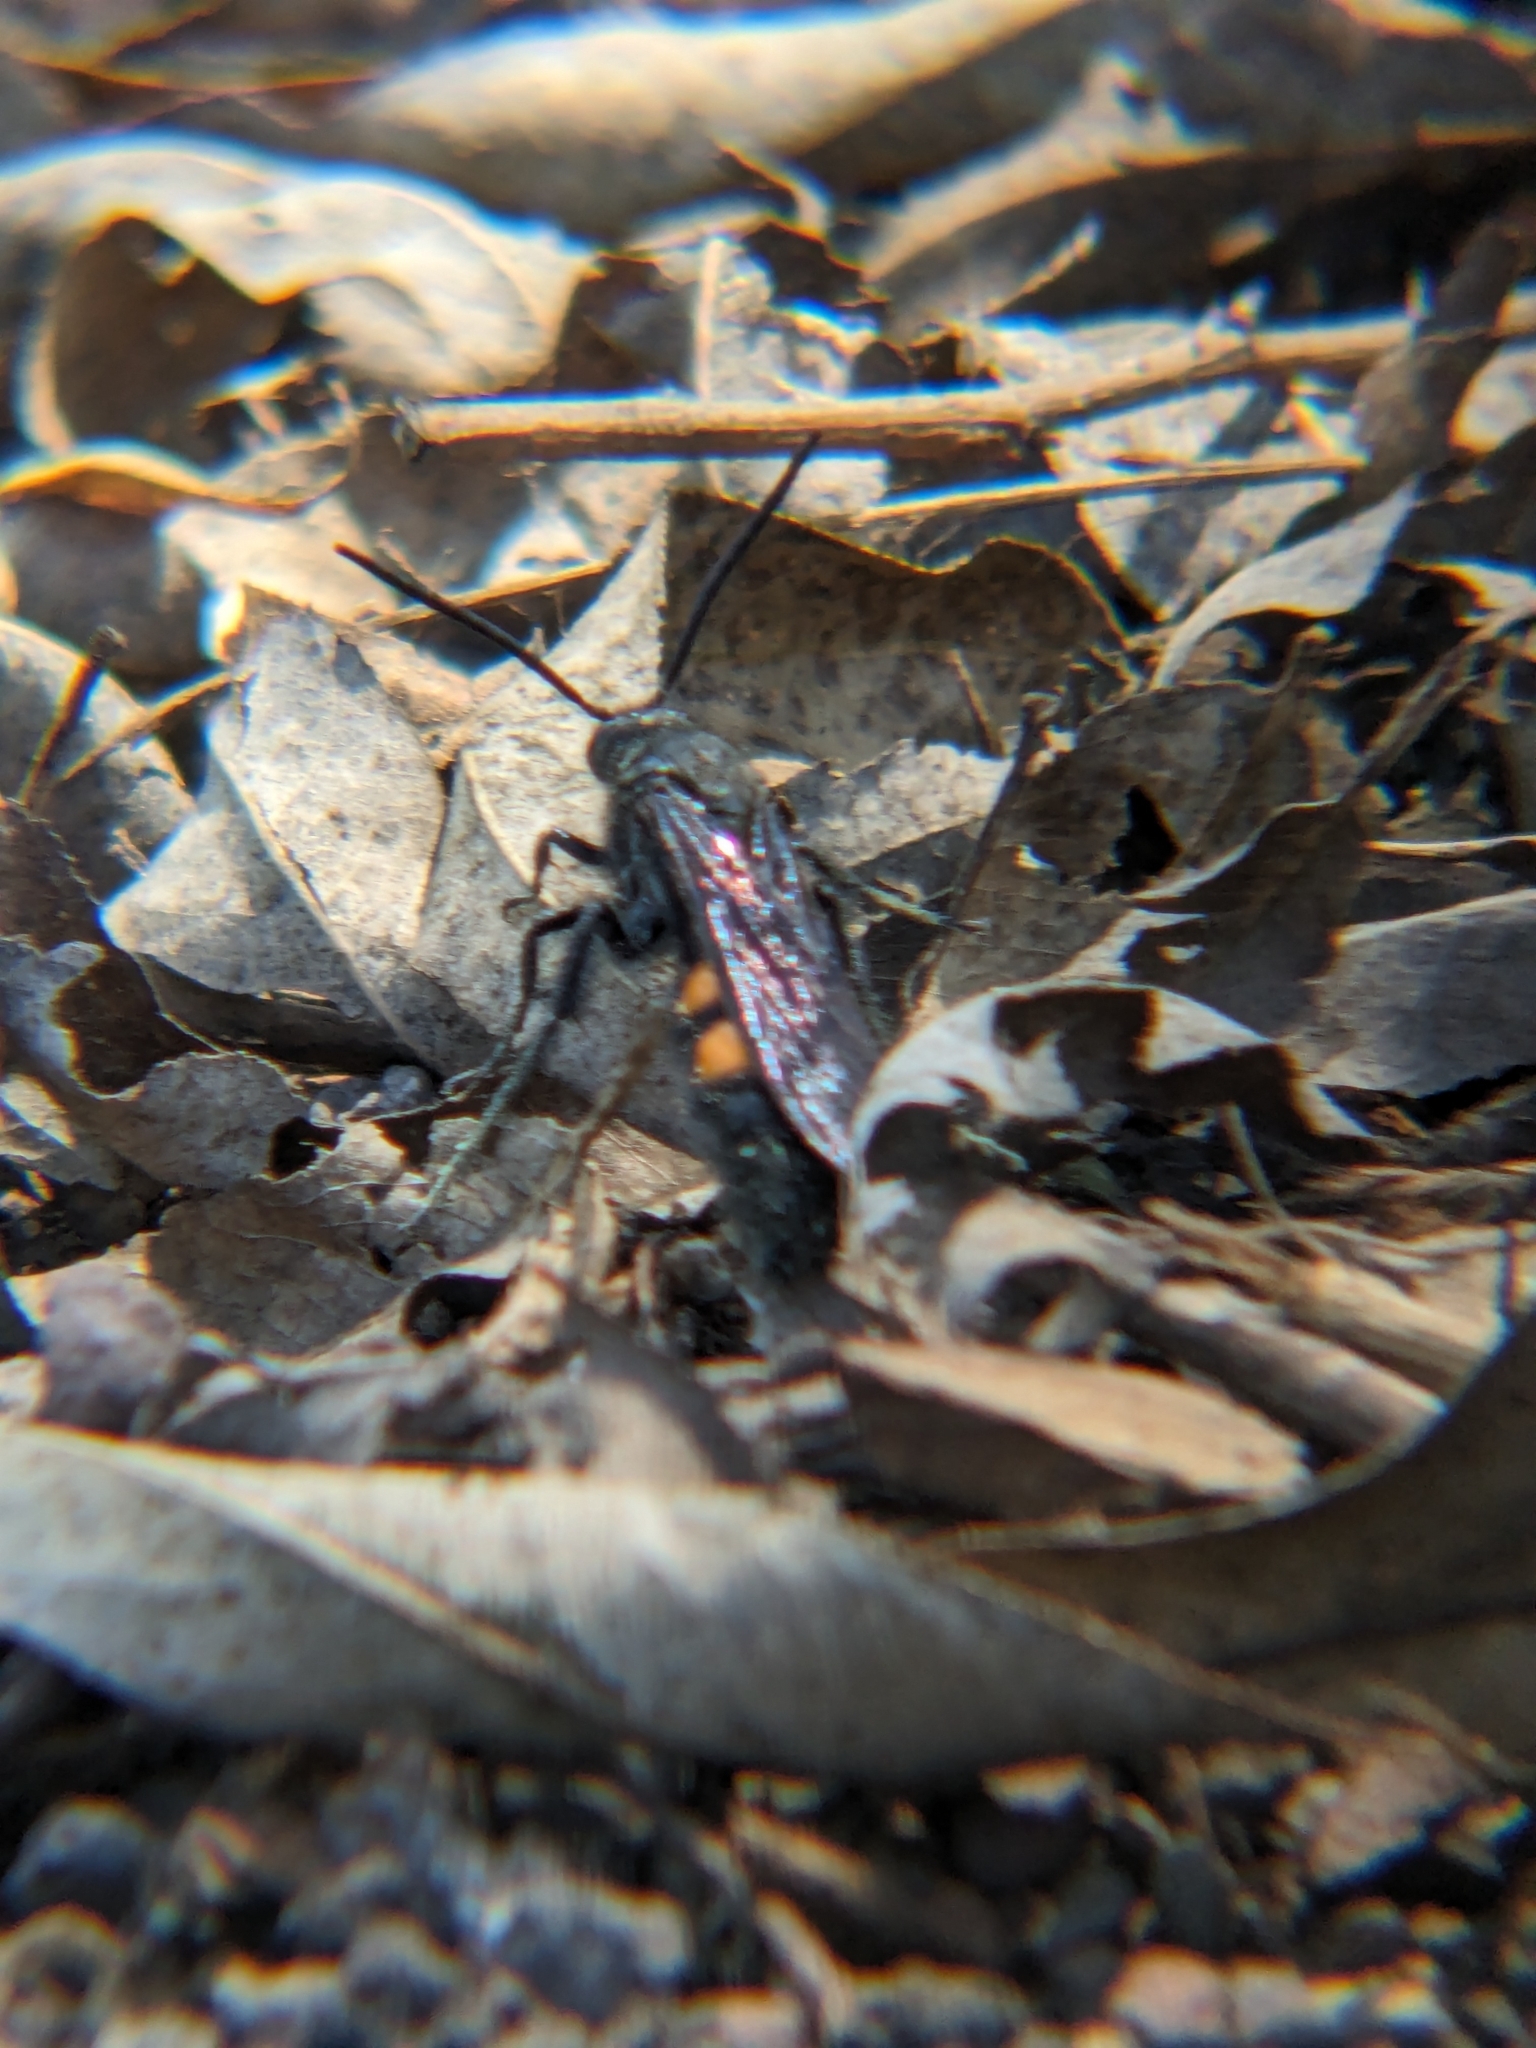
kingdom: Animalia
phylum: Arthropoda
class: Insecta
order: Hymenoptera
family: Scoliidae
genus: Pygodasis
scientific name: Pygodasis ephippium
